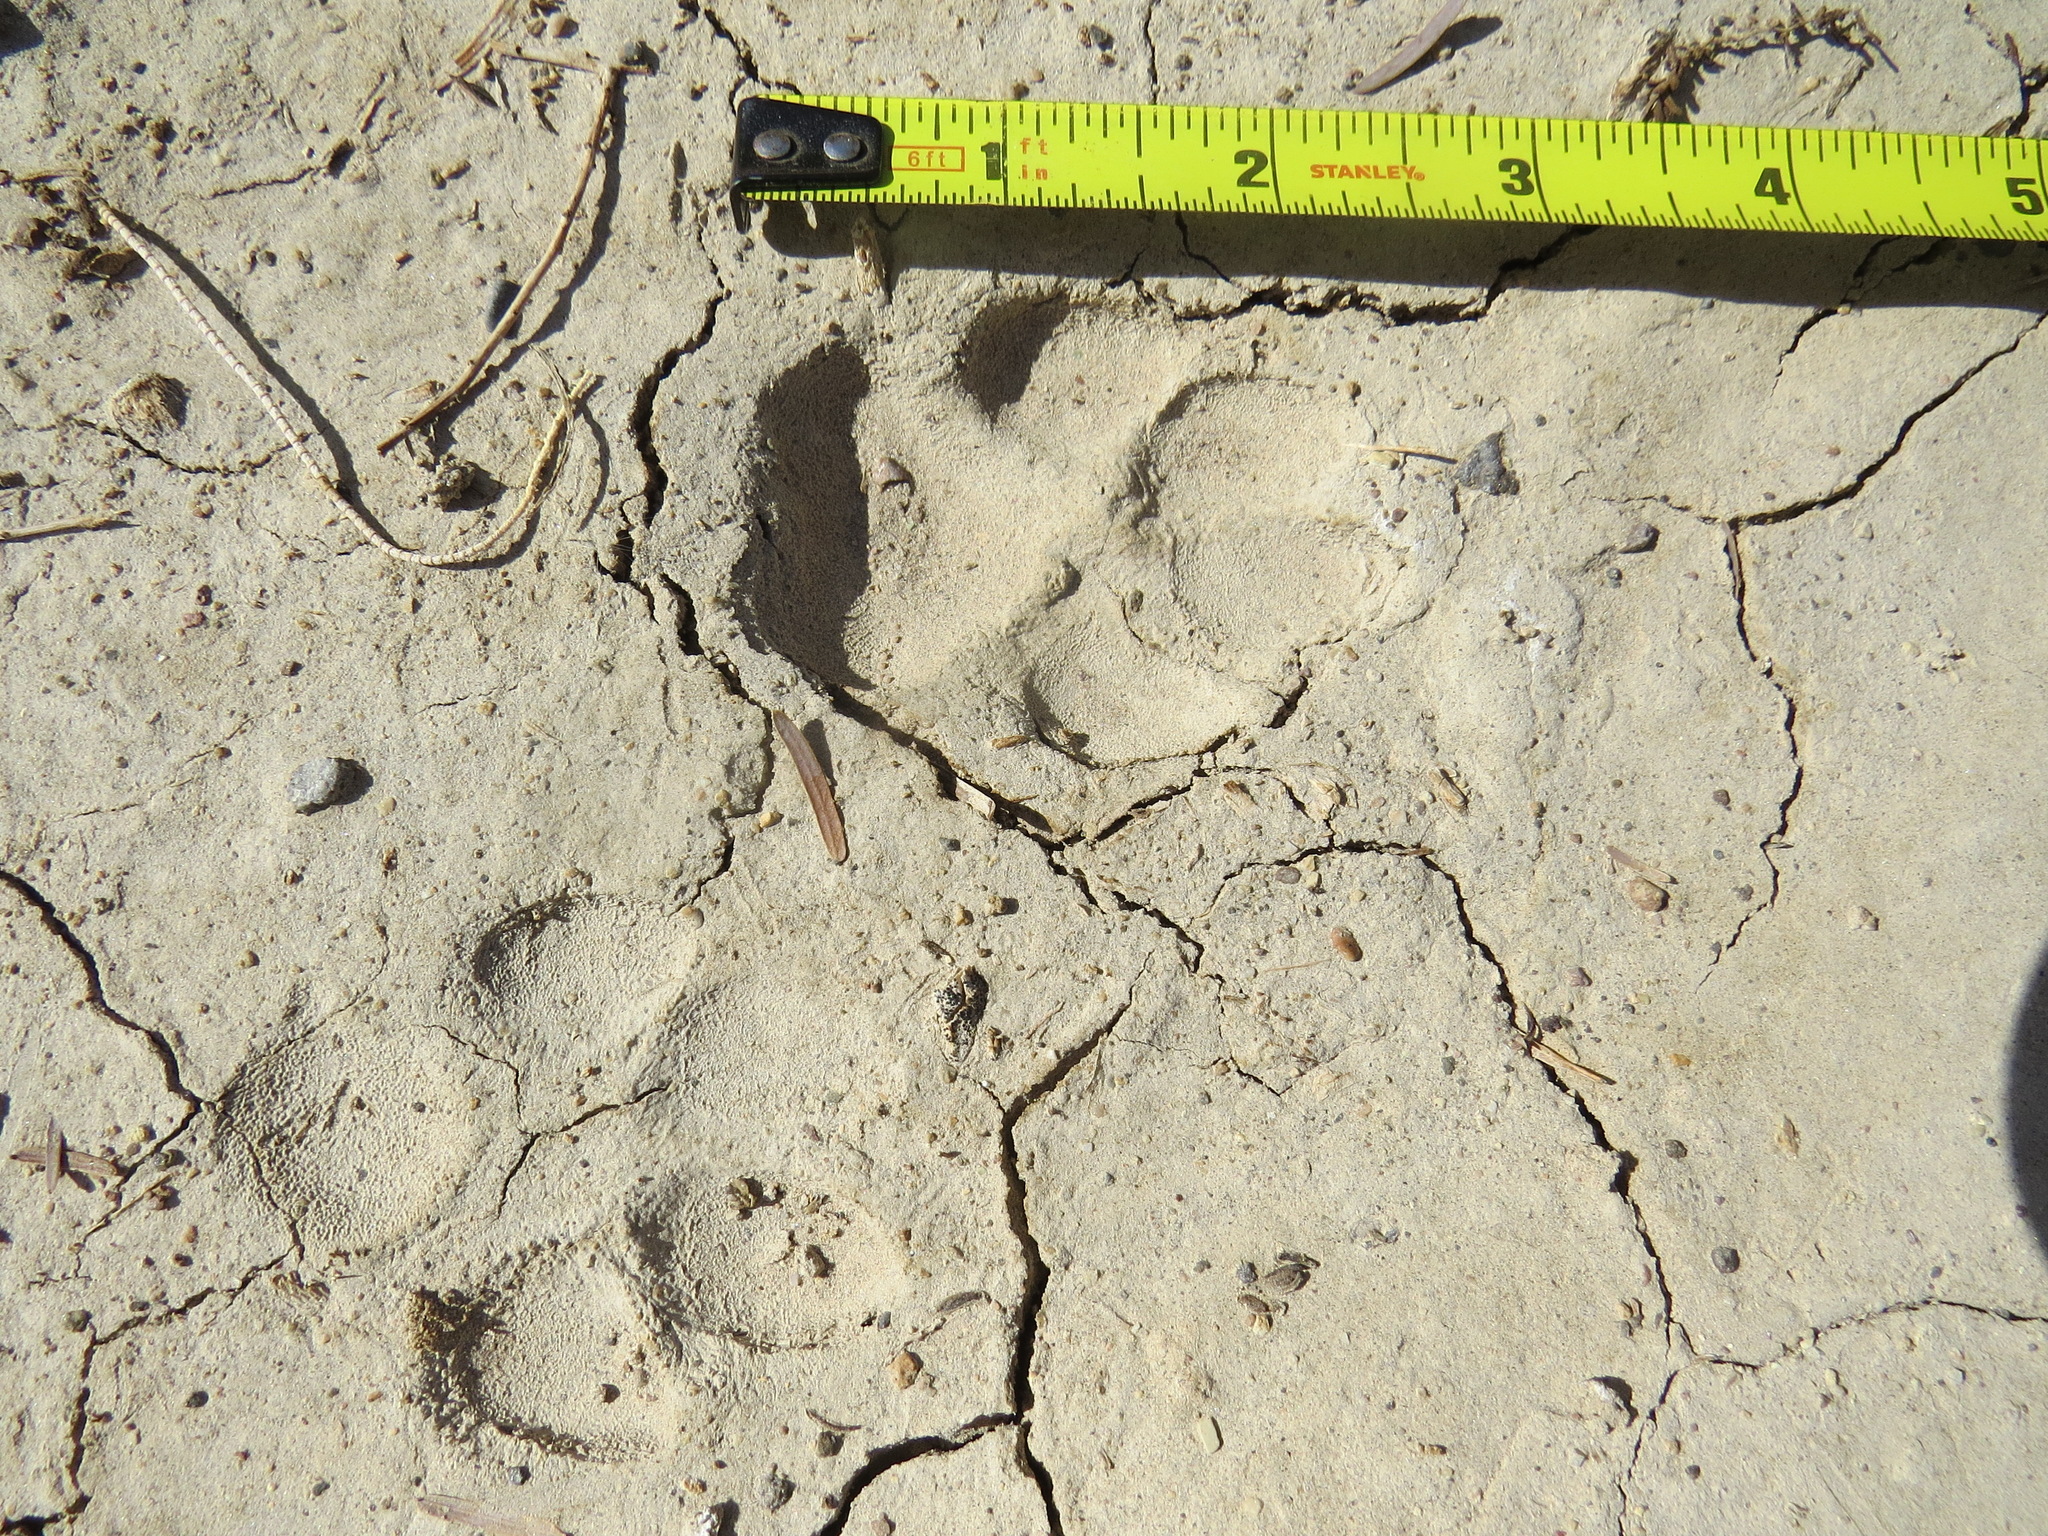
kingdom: Animalia
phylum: Chordata
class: Mammalia
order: Carnivora
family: Canidae
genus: Canis
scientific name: Canis latrans
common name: Coyote
